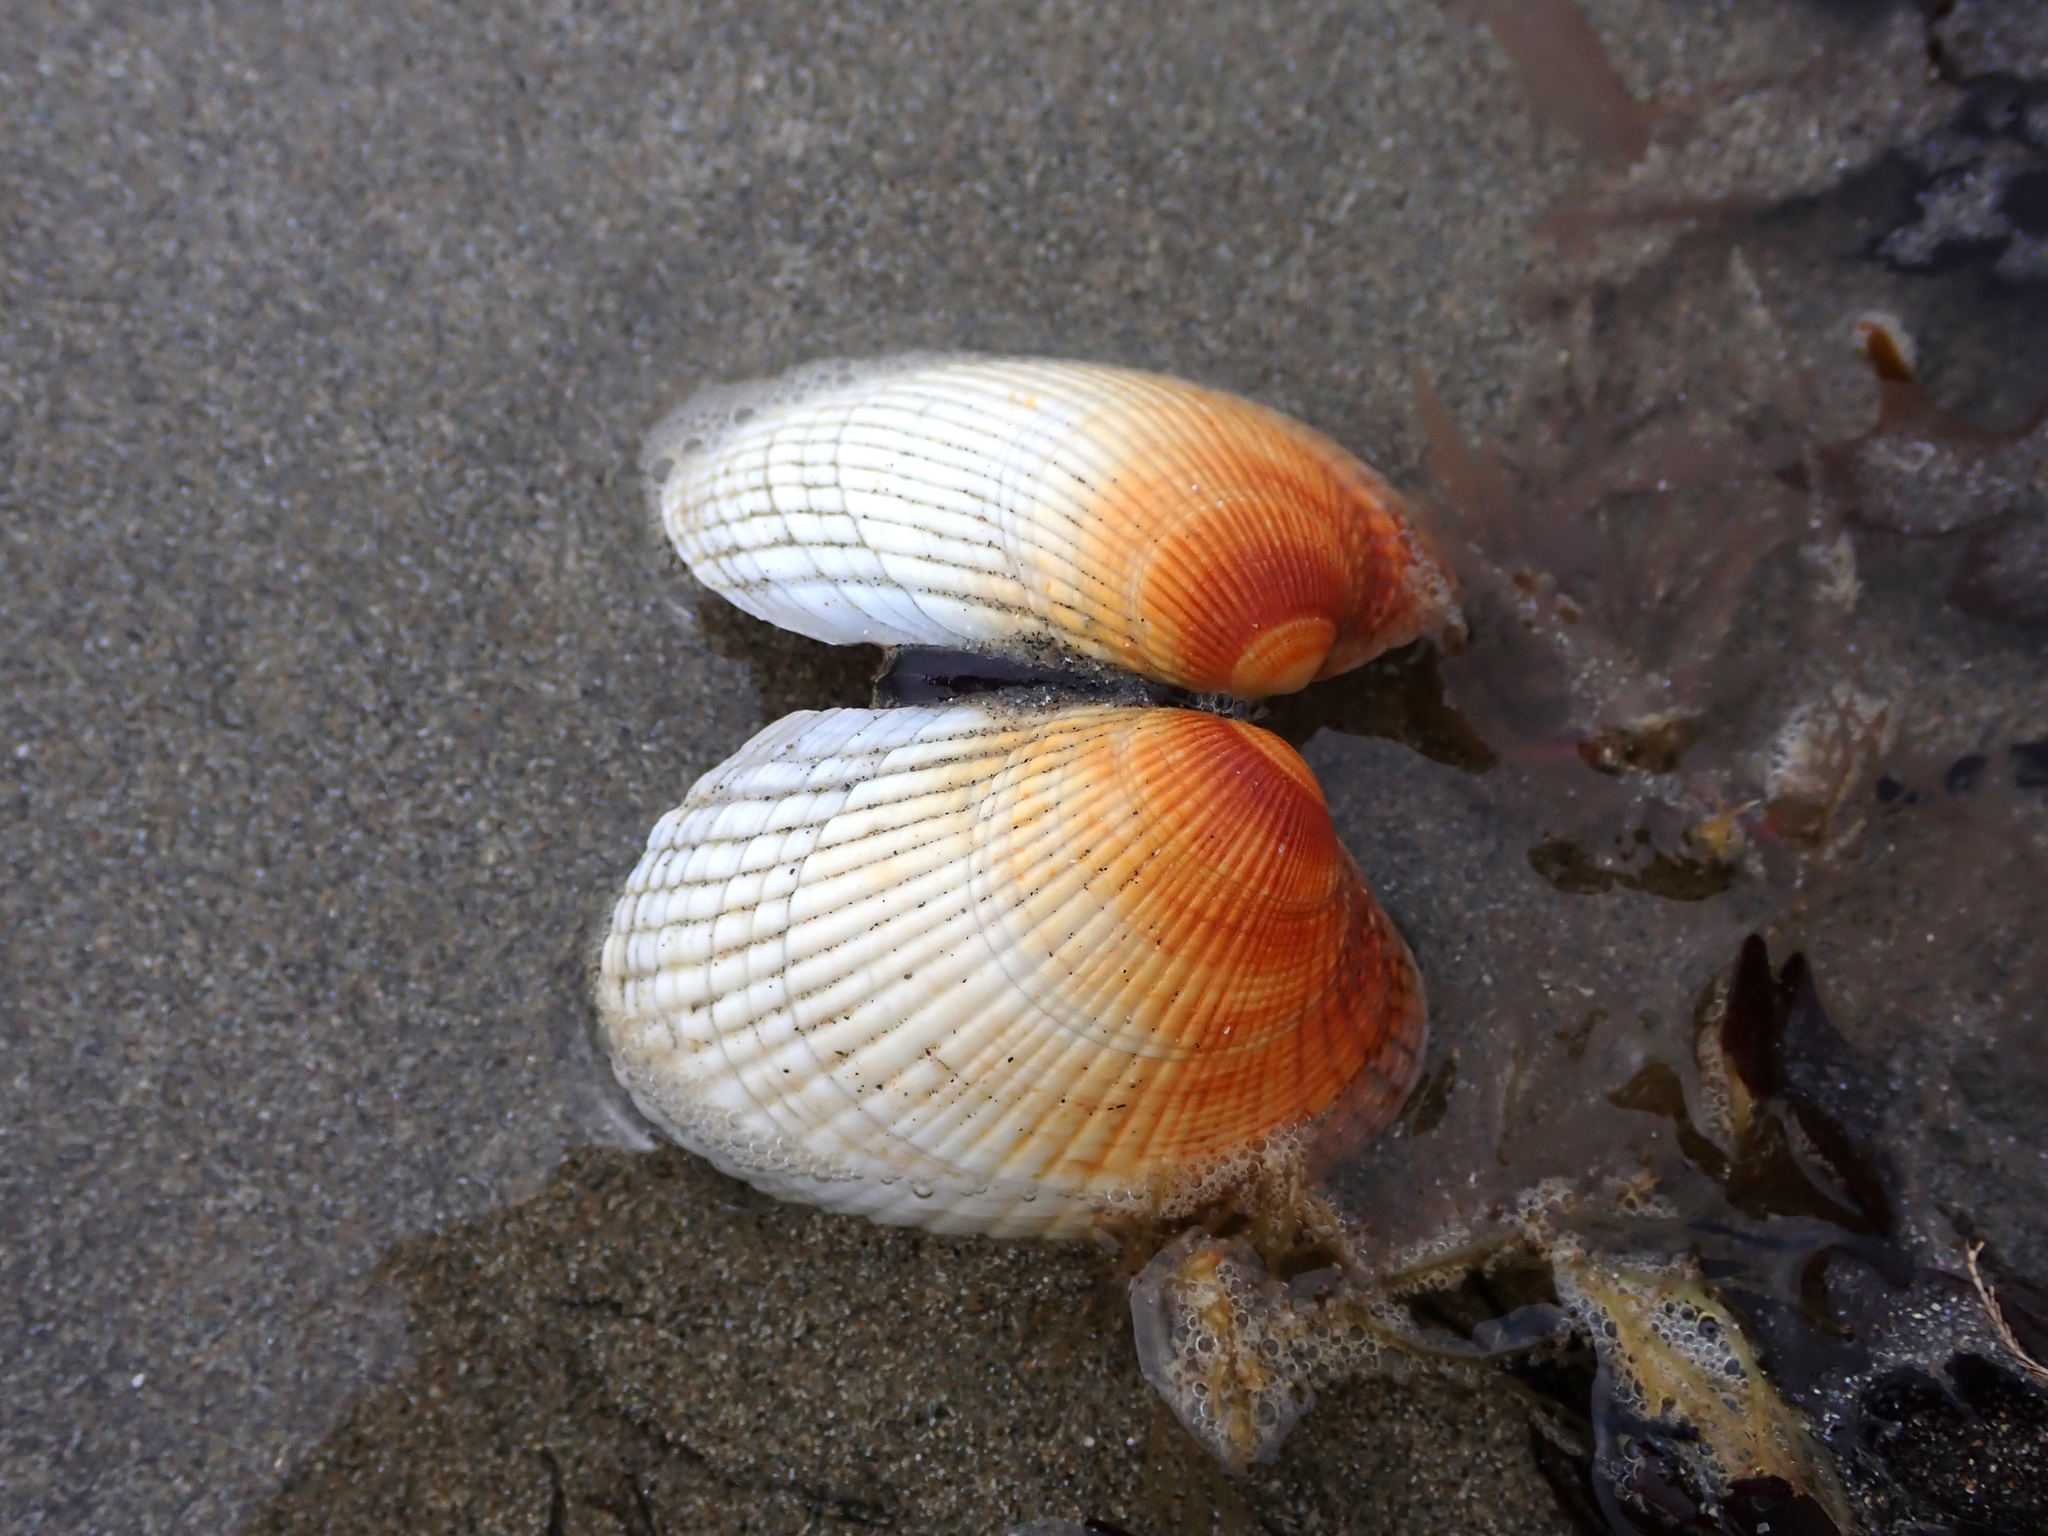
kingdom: Animalia
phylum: Mollusca
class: Bivalvia
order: Venerida
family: Veneridae
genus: Leukoma
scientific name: Leukoma crassicosta
